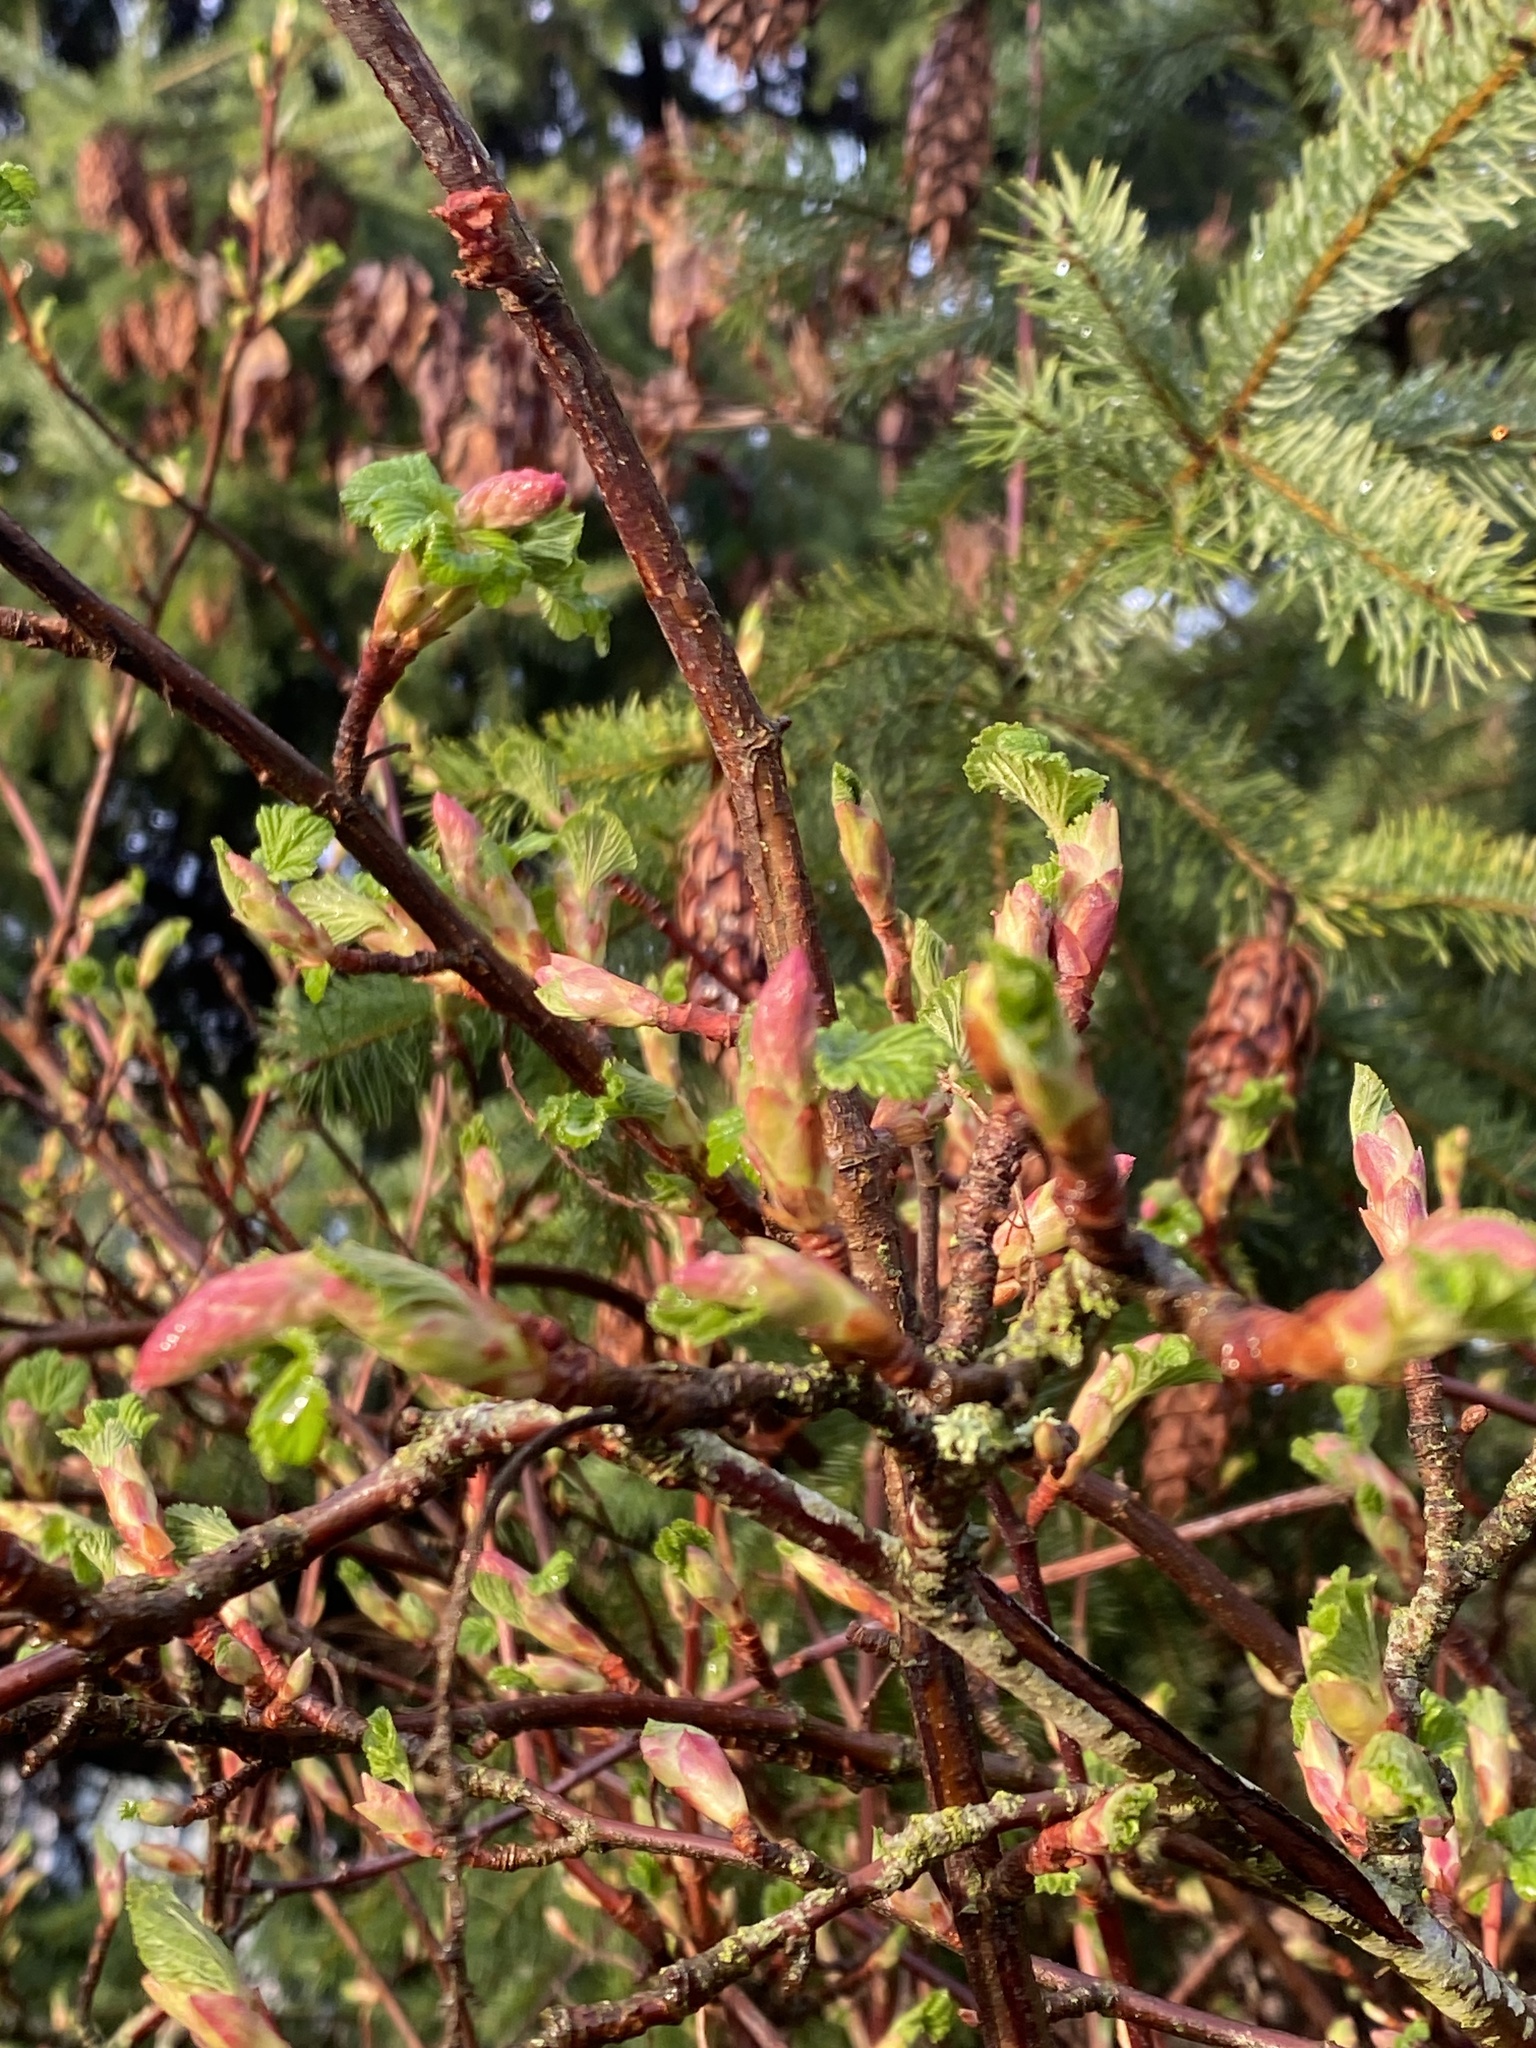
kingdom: Plantae
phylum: Tracheophyta
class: Magnoliopsida
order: Saxifragales
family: Grossulariaceae
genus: Ribes
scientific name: Ribes sanguineum
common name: Flowering currant
